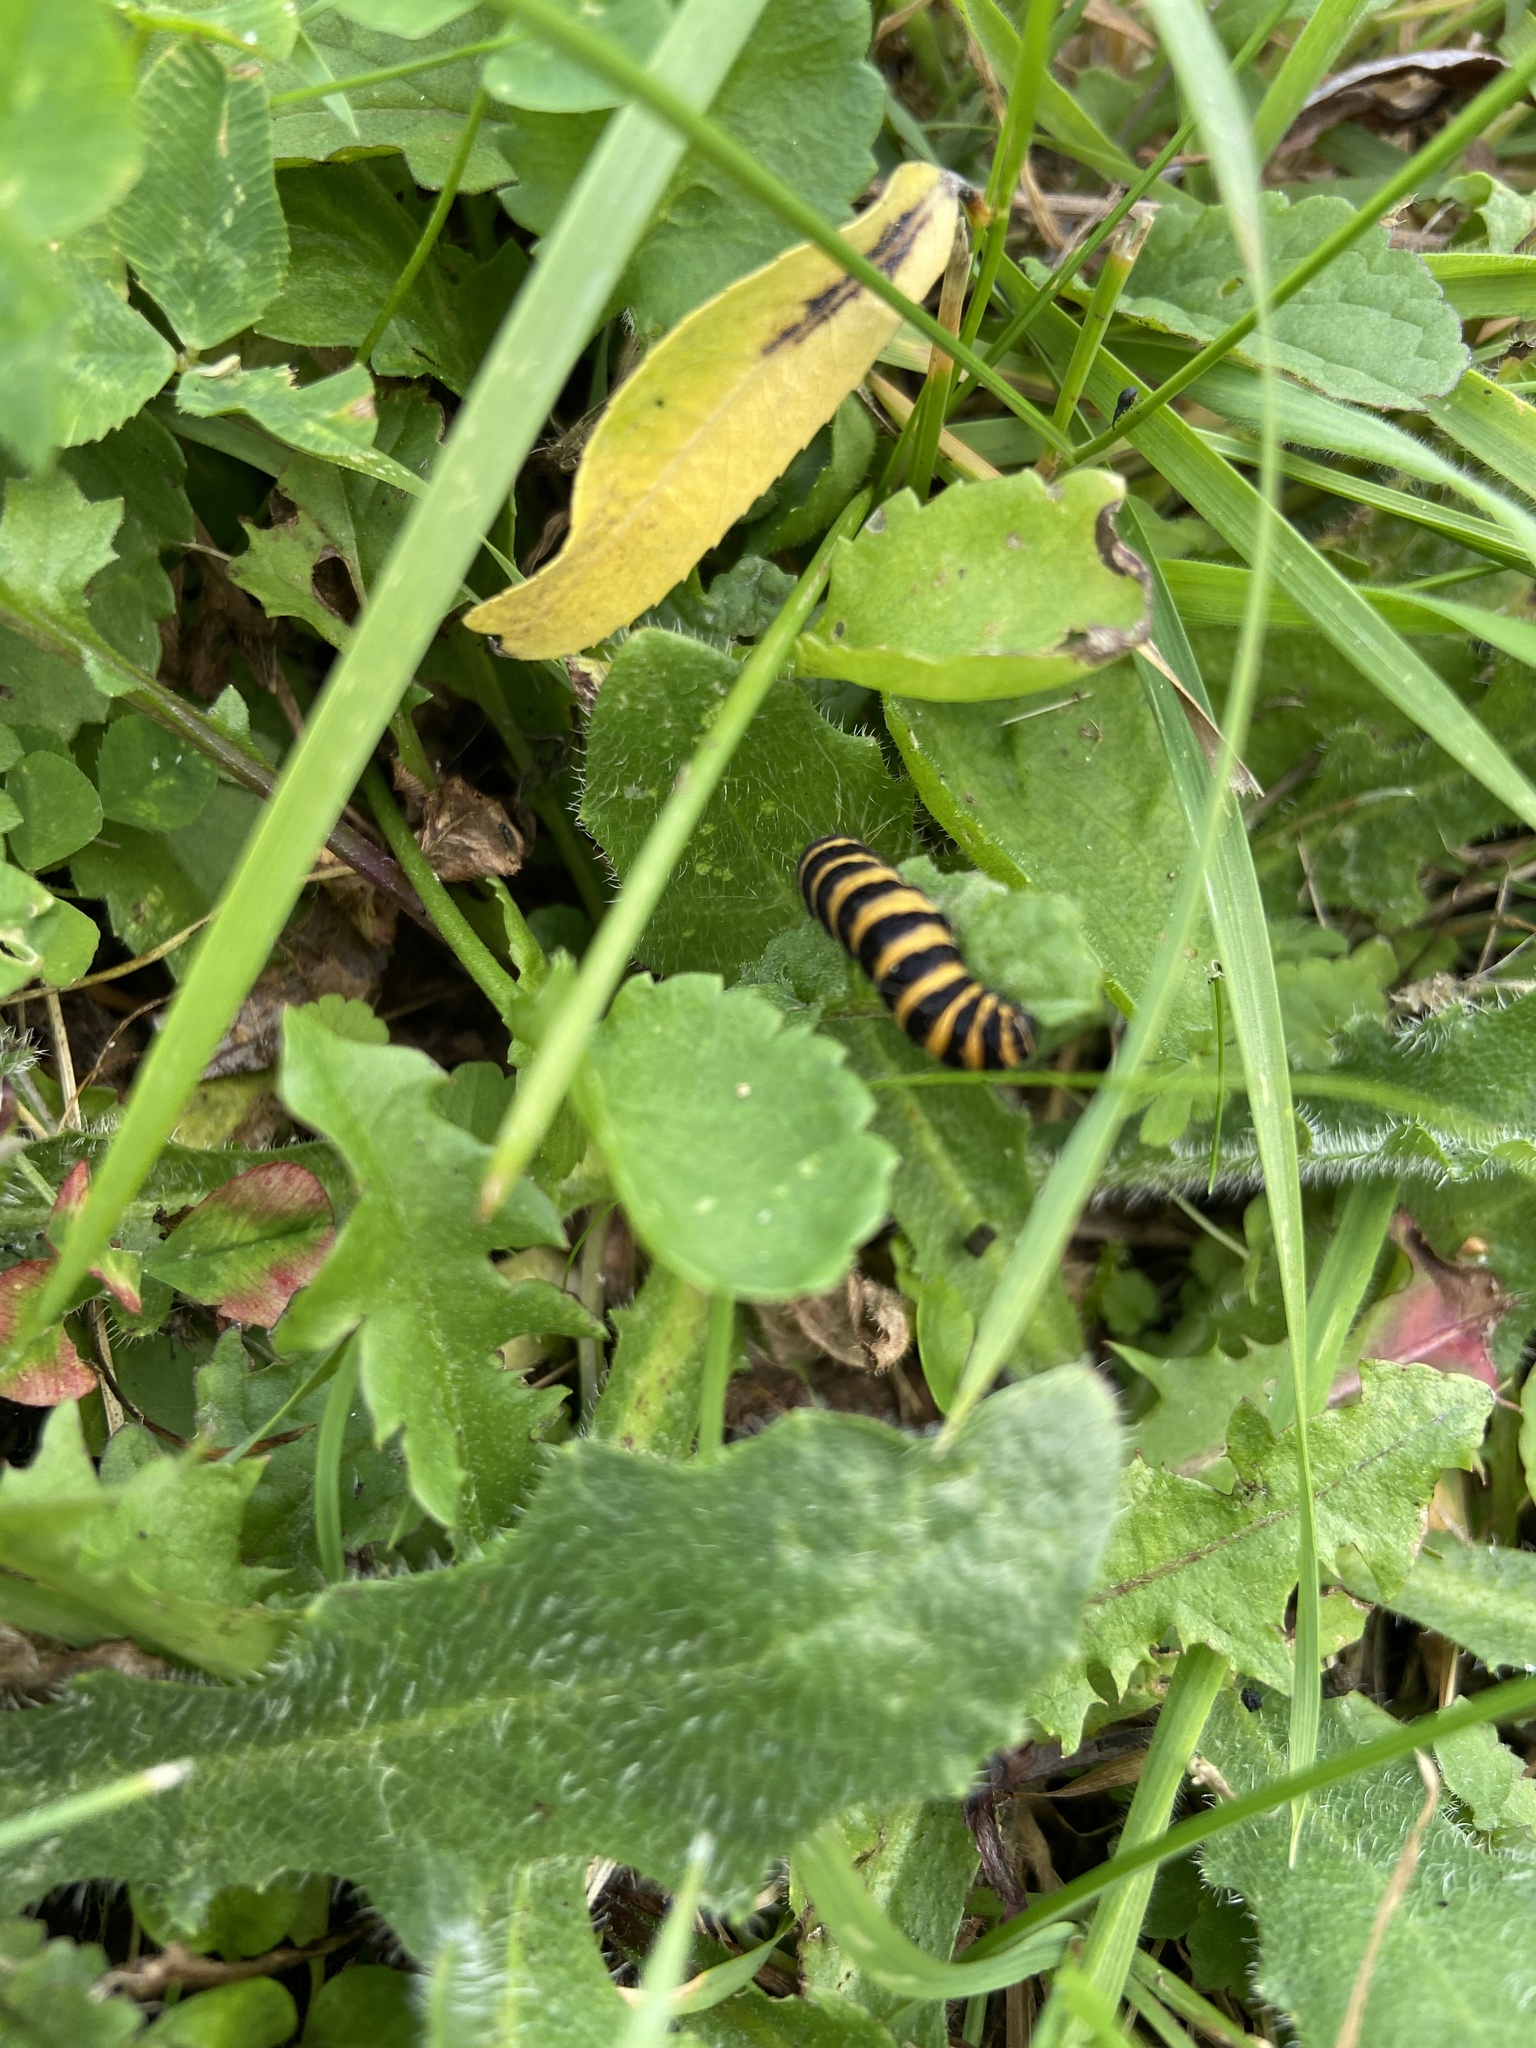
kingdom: Animalia
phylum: Arthropoda
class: Insecta
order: Lepidoptera
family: Erebidae
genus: Tyria
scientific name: Tyria jacobaeae
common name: Cinnabar
